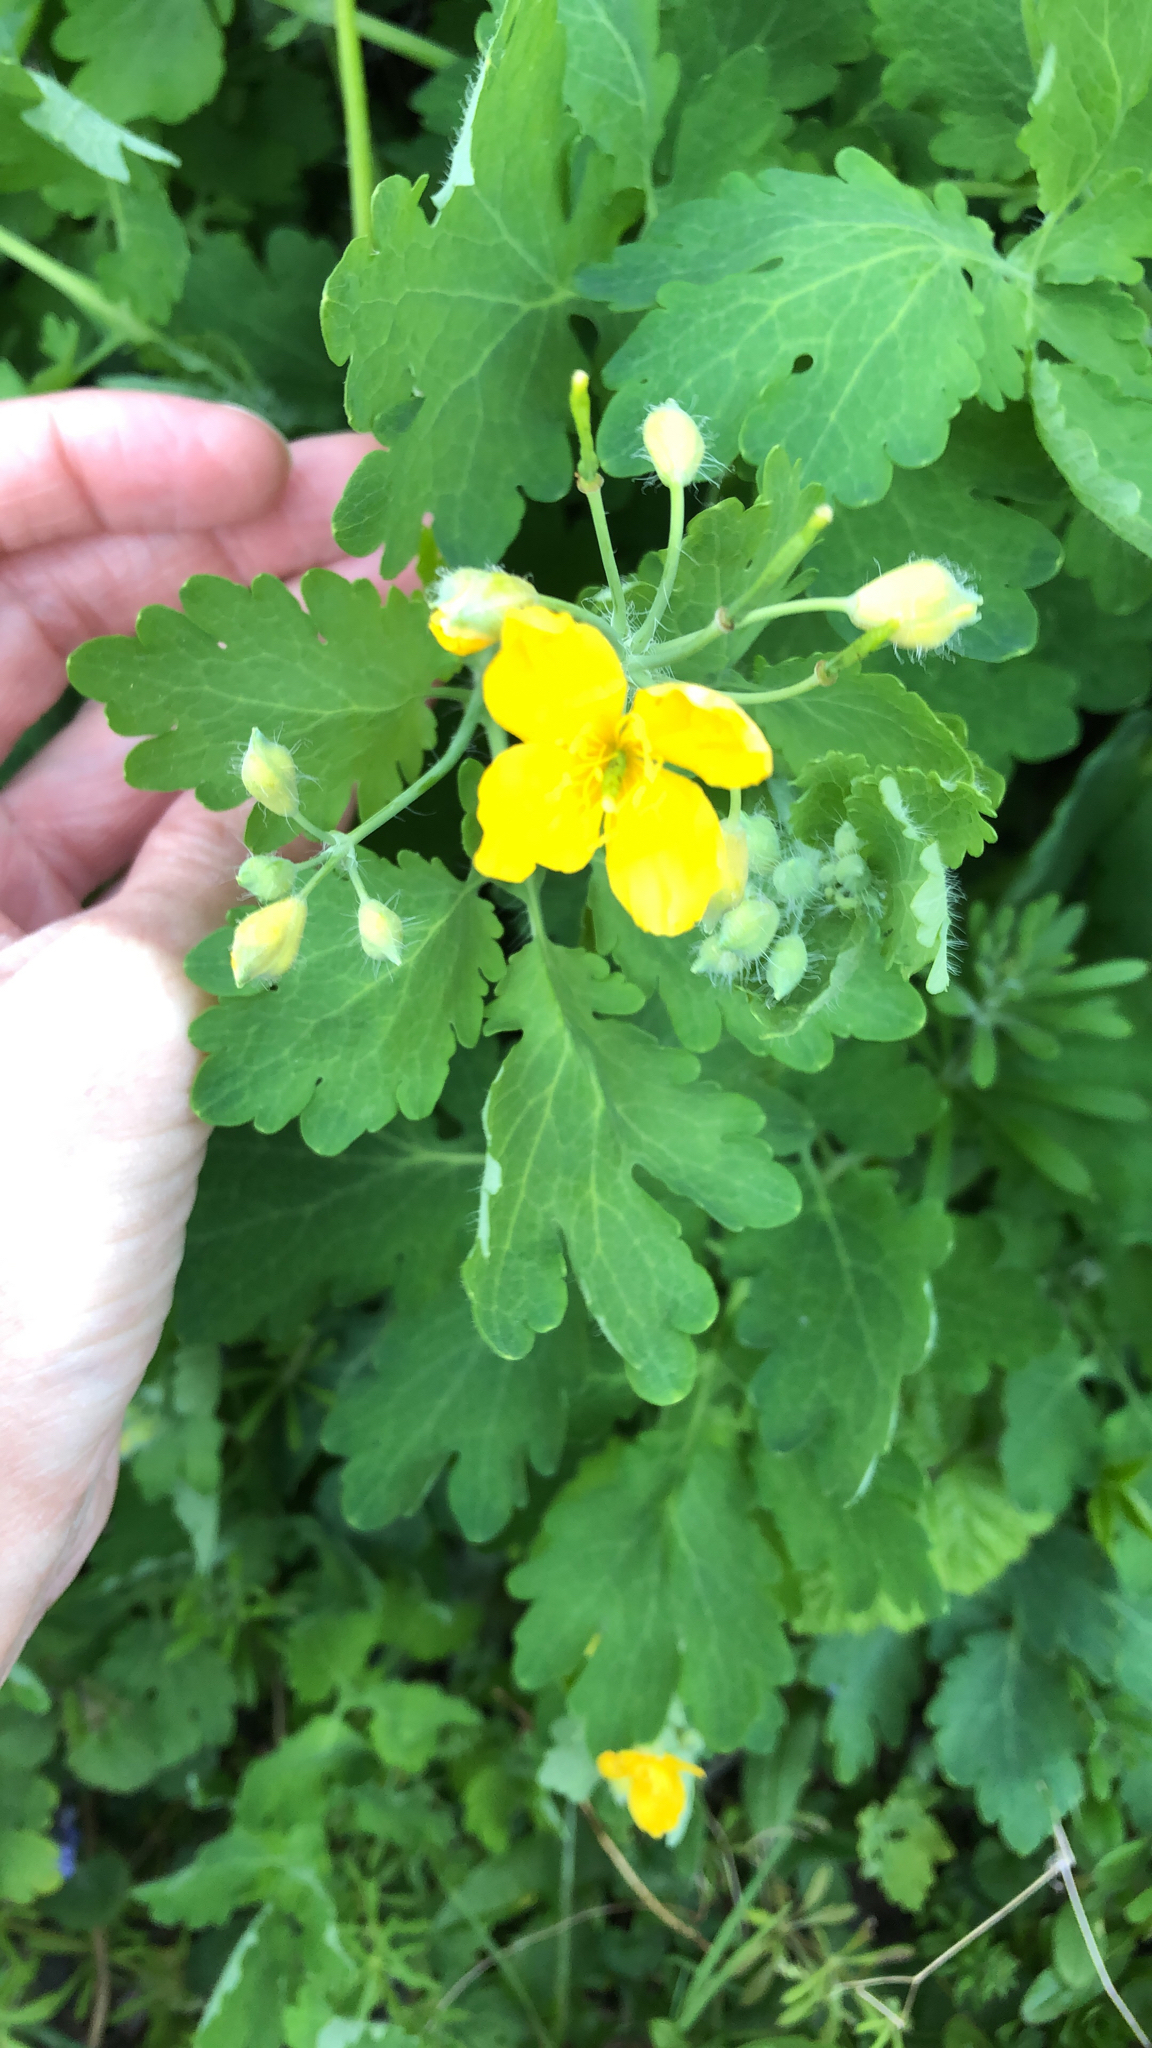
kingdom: Plantae
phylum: Tracheophyta
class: Magnoliopsida
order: Ranunculales
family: Papaveraceae
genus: Chelidonium
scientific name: Chelidonium majus
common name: Greater celandine
